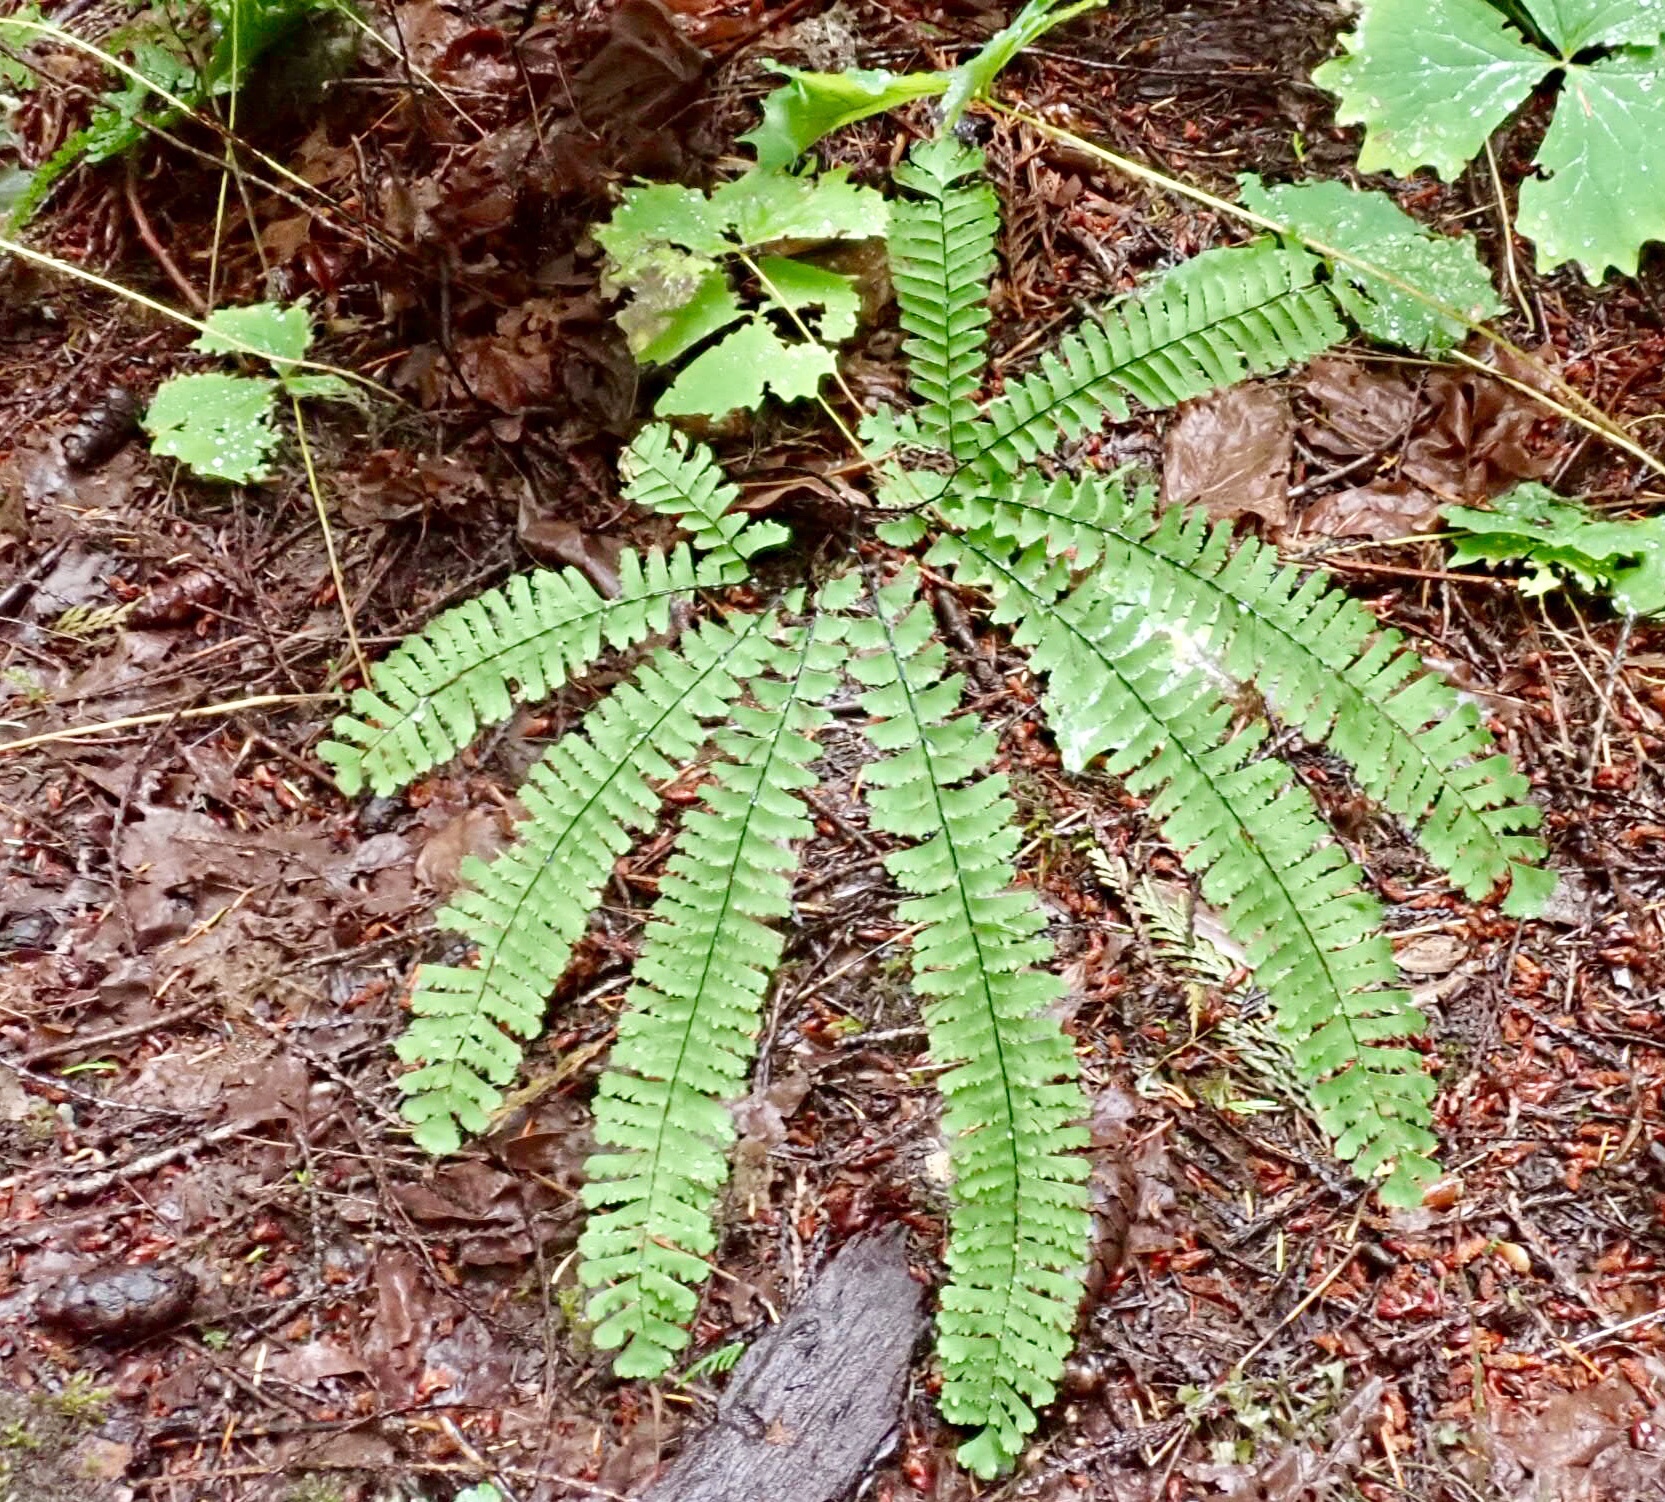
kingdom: Plantae
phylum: Tracheophyta
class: Polypodiopsida
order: Polypodiales
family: Pteridaceae
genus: Adiantum
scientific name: Adiantum aleuticum
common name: Aleutian maidenhair fern
